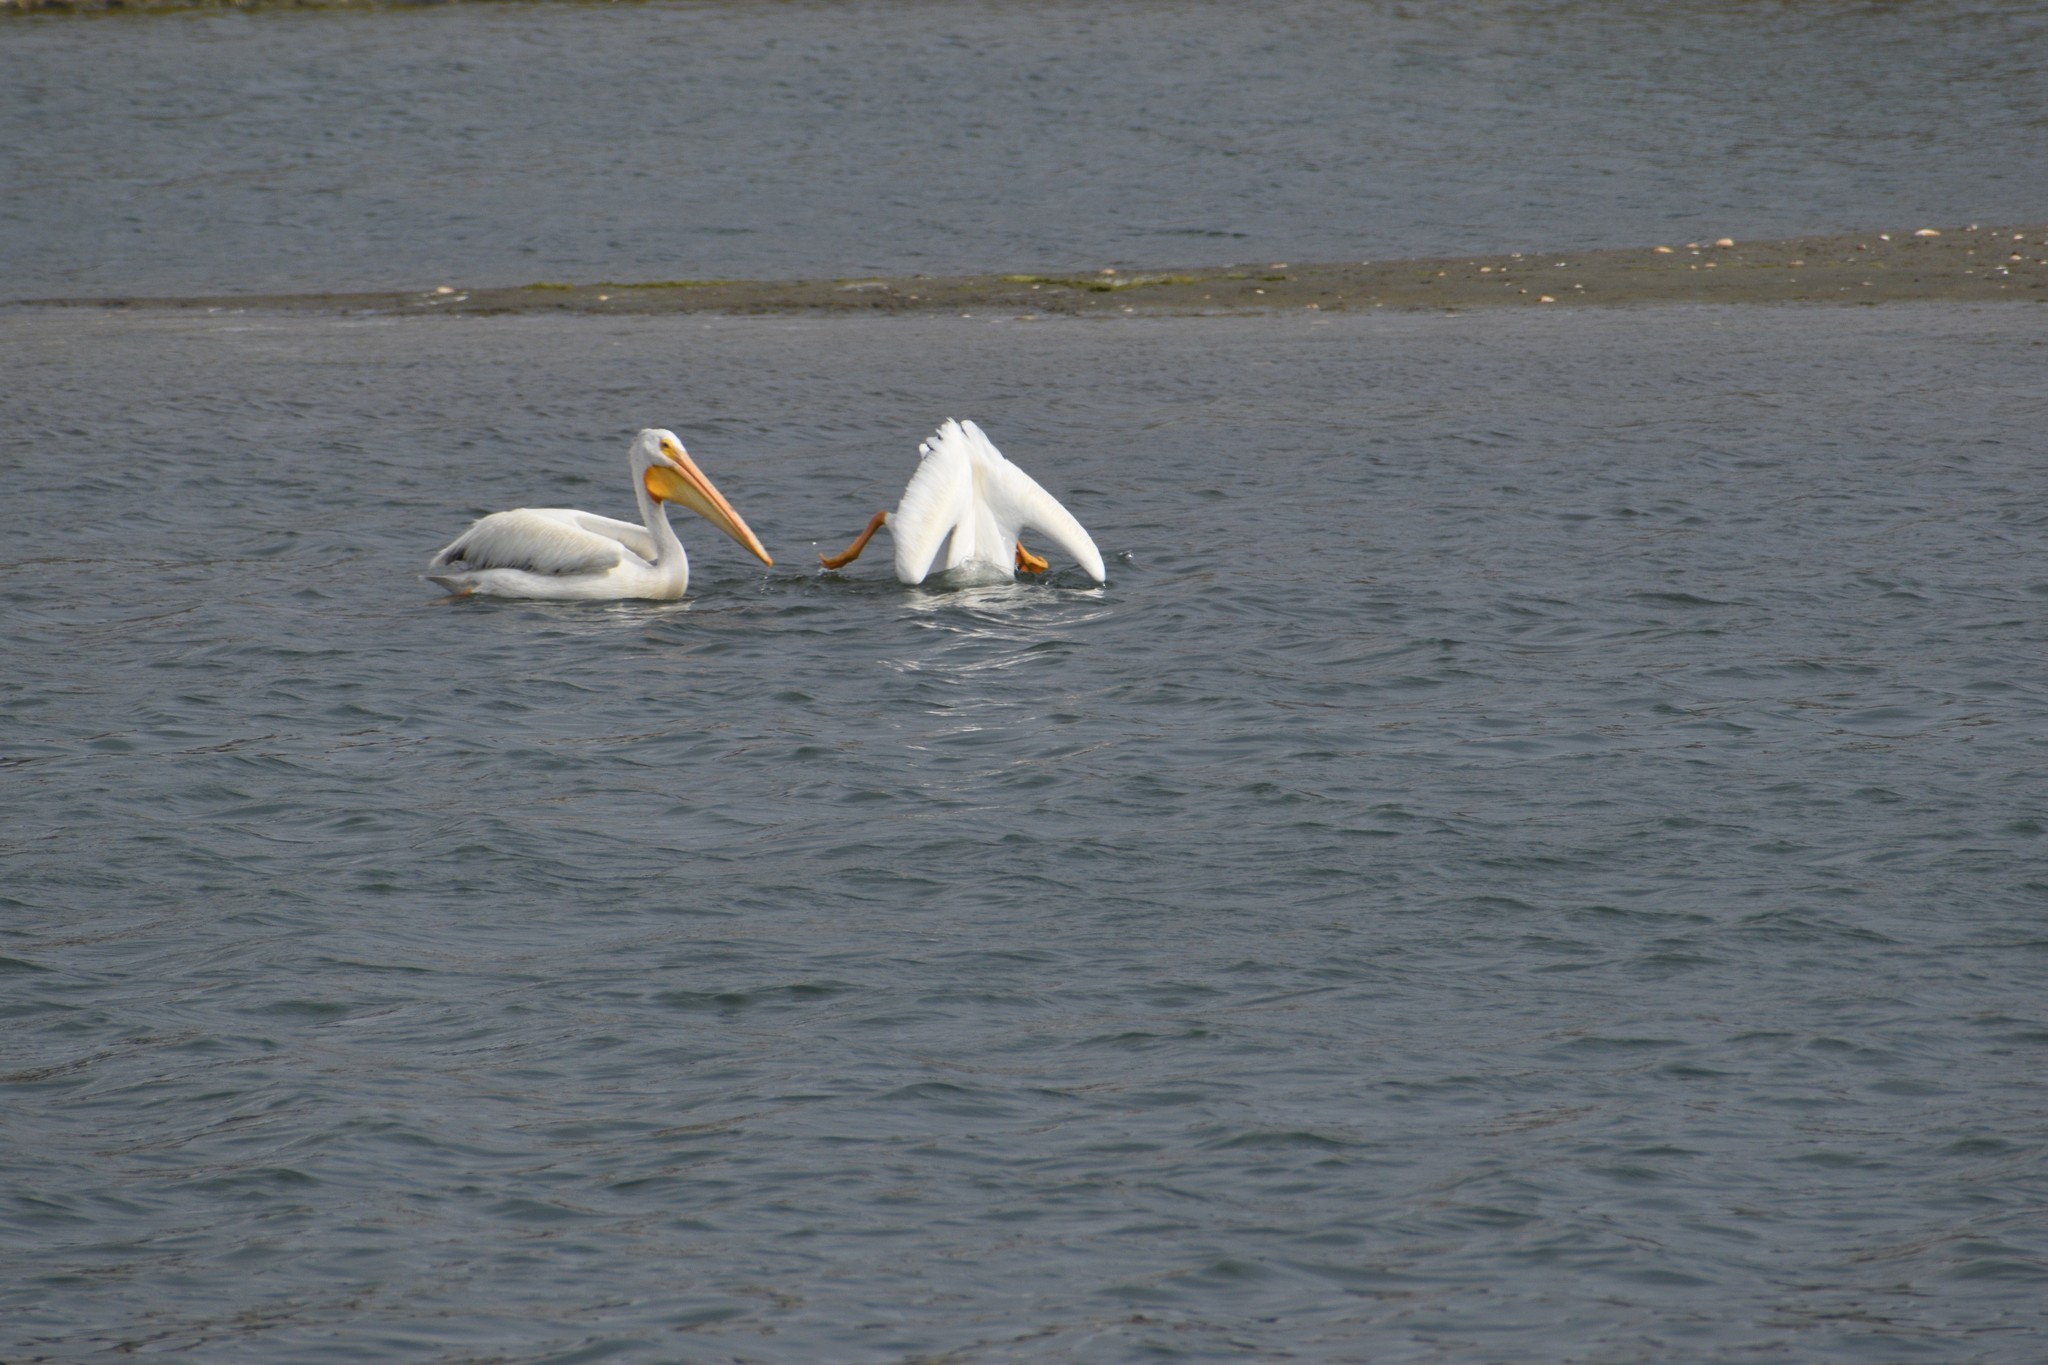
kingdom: Animalia
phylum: Chordata
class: Aves
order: Pelecaniformes
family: Pelecanidae
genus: Pelecanus
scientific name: Pelecanus erythrorhynchos
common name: American white pelican
